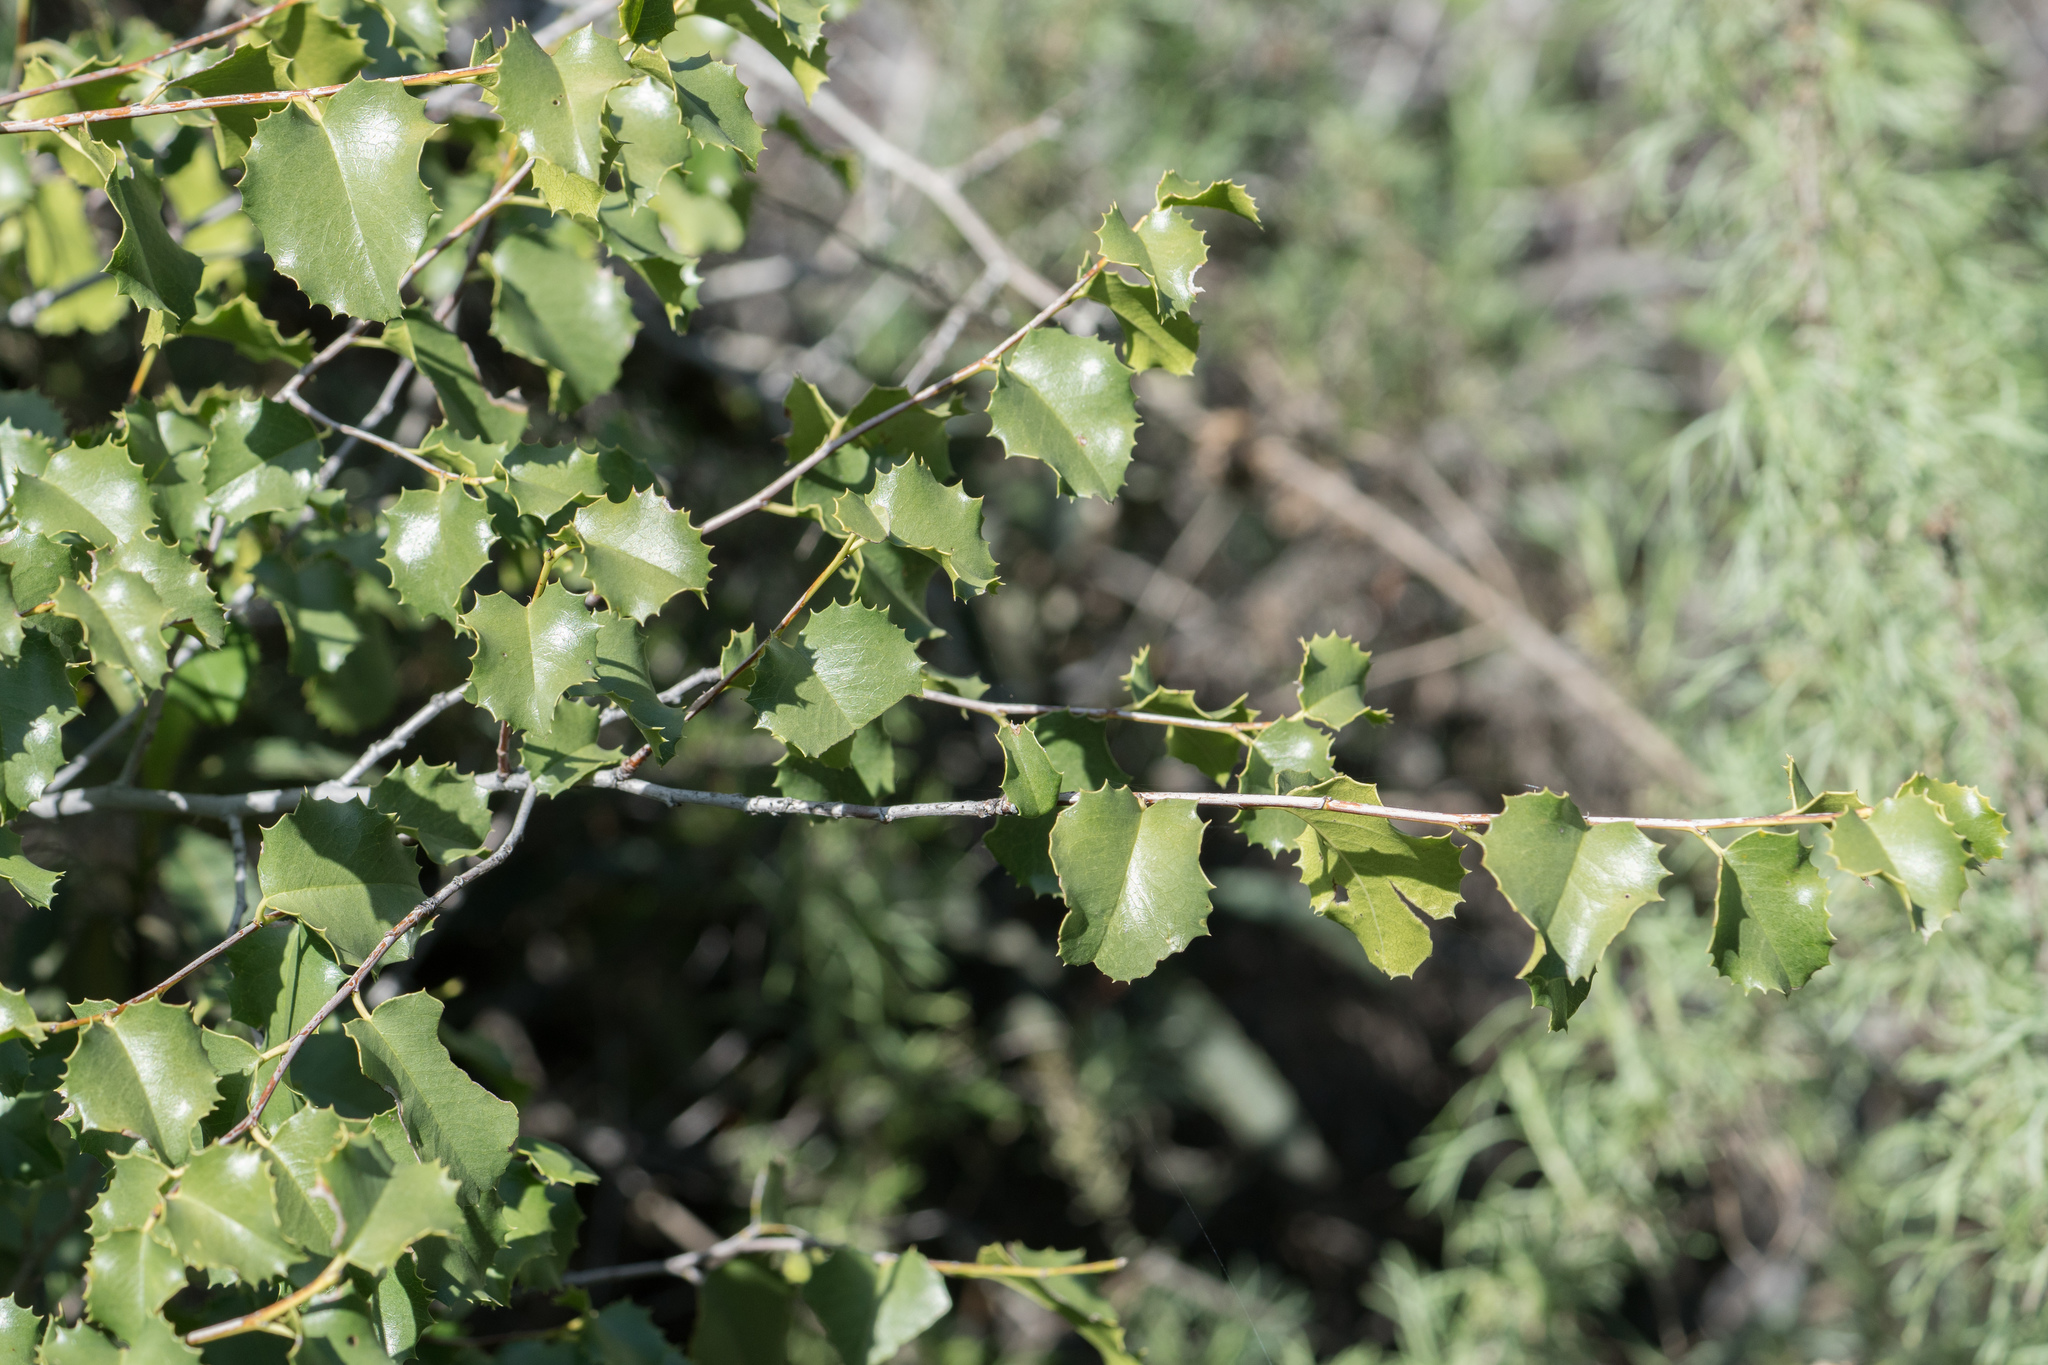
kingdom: Plantae
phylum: Tracheophyta
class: Magnoliopsida
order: Rosales
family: Rosaceae
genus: Prunus
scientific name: Prunus ilicifolia
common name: Hollyleaf cherry
